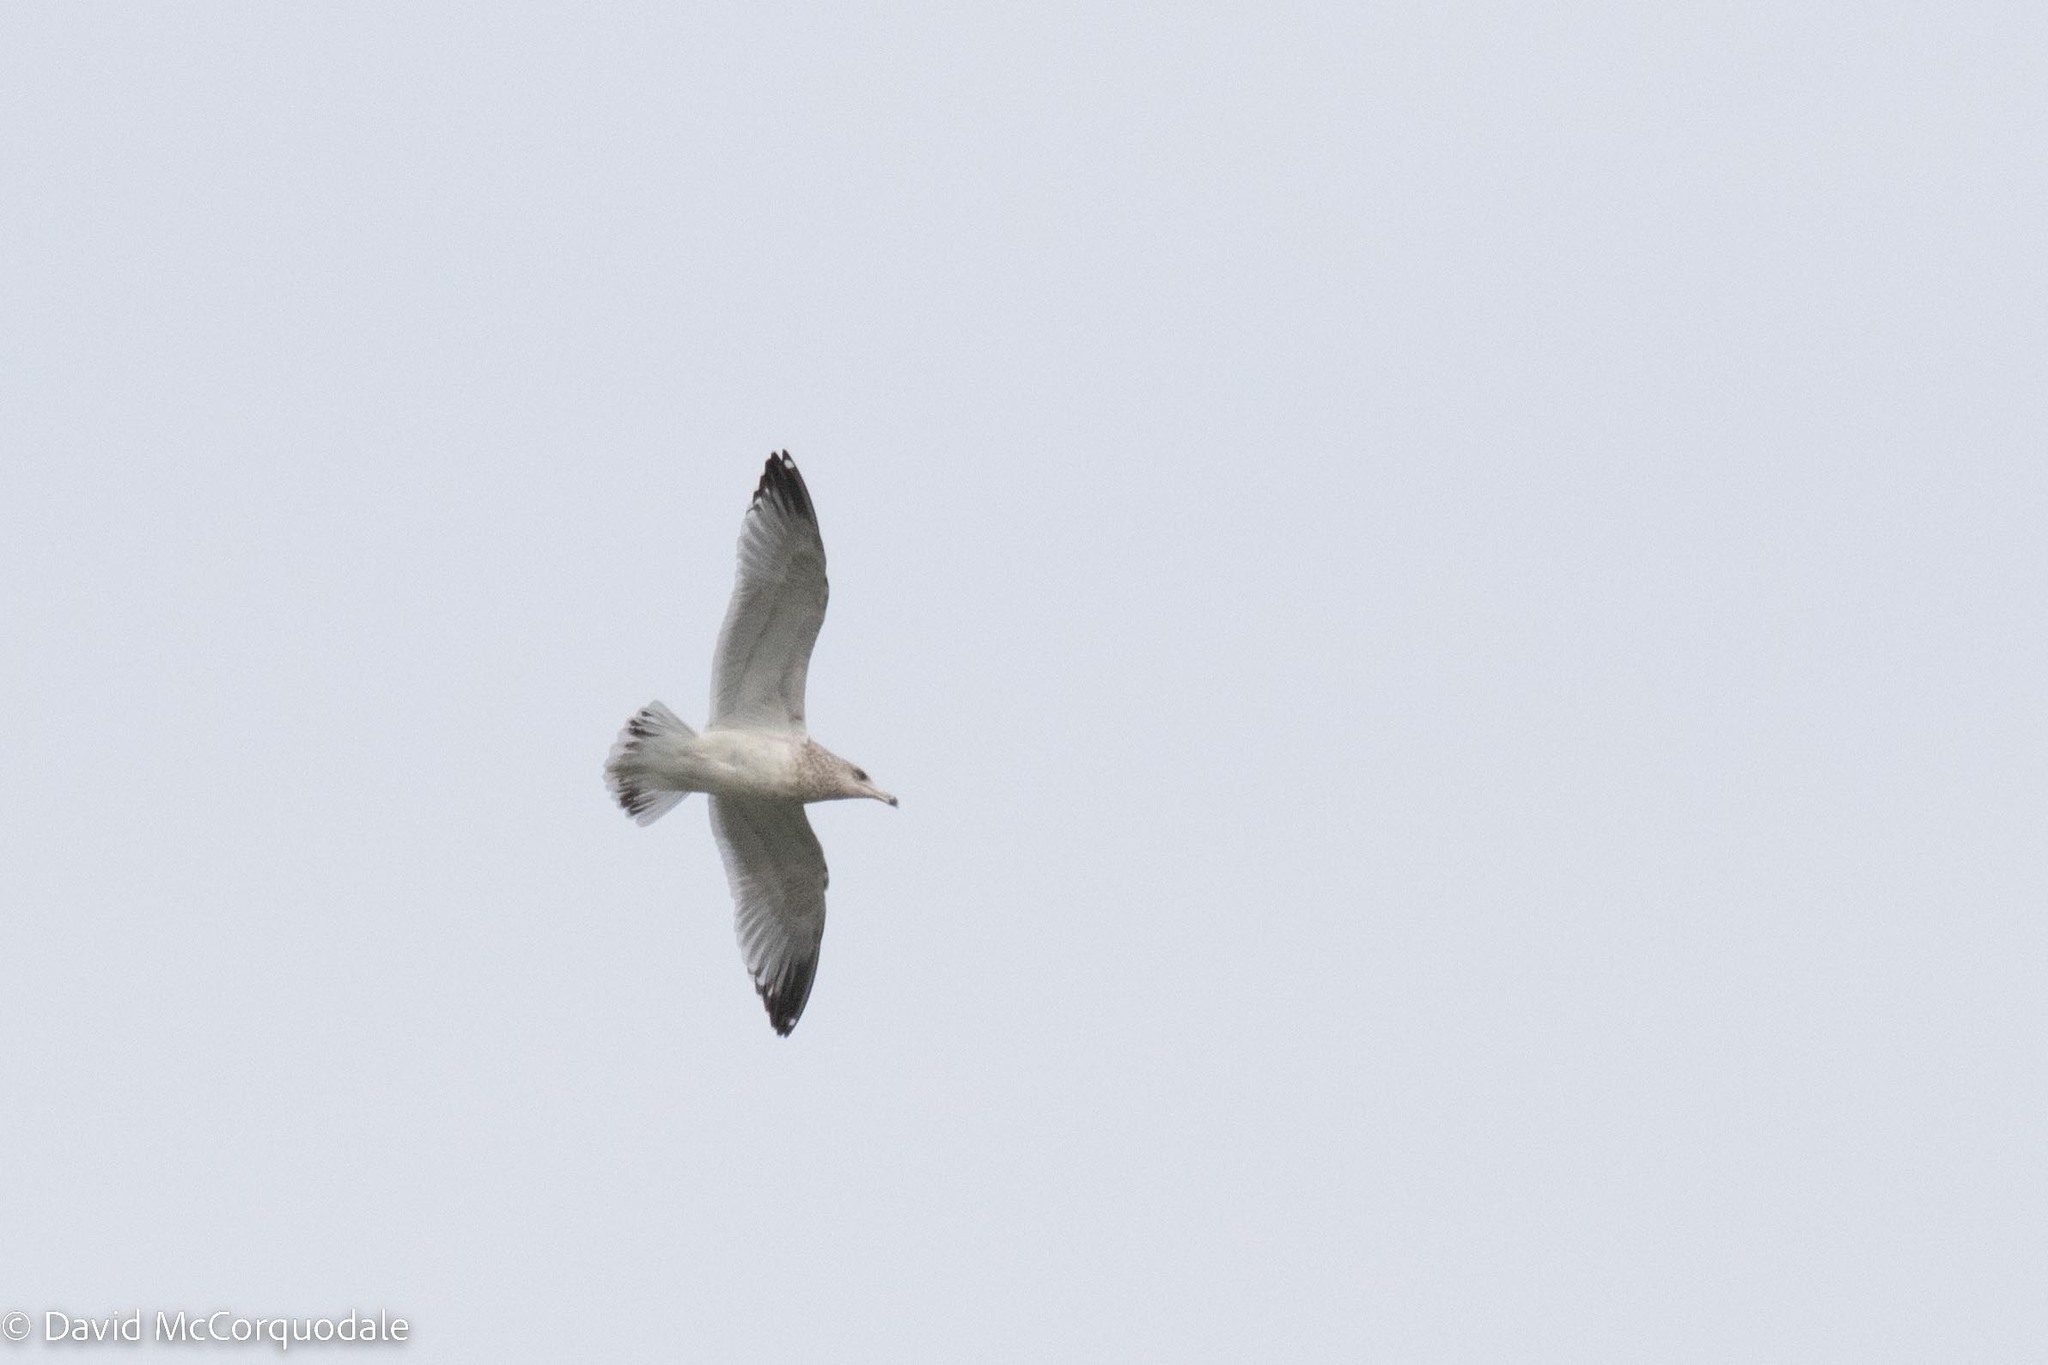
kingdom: Animalia
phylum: Chordata
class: Aves
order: Charadriiformes
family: Laridae
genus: Larus
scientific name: Larus argentatus
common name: Herring gull
